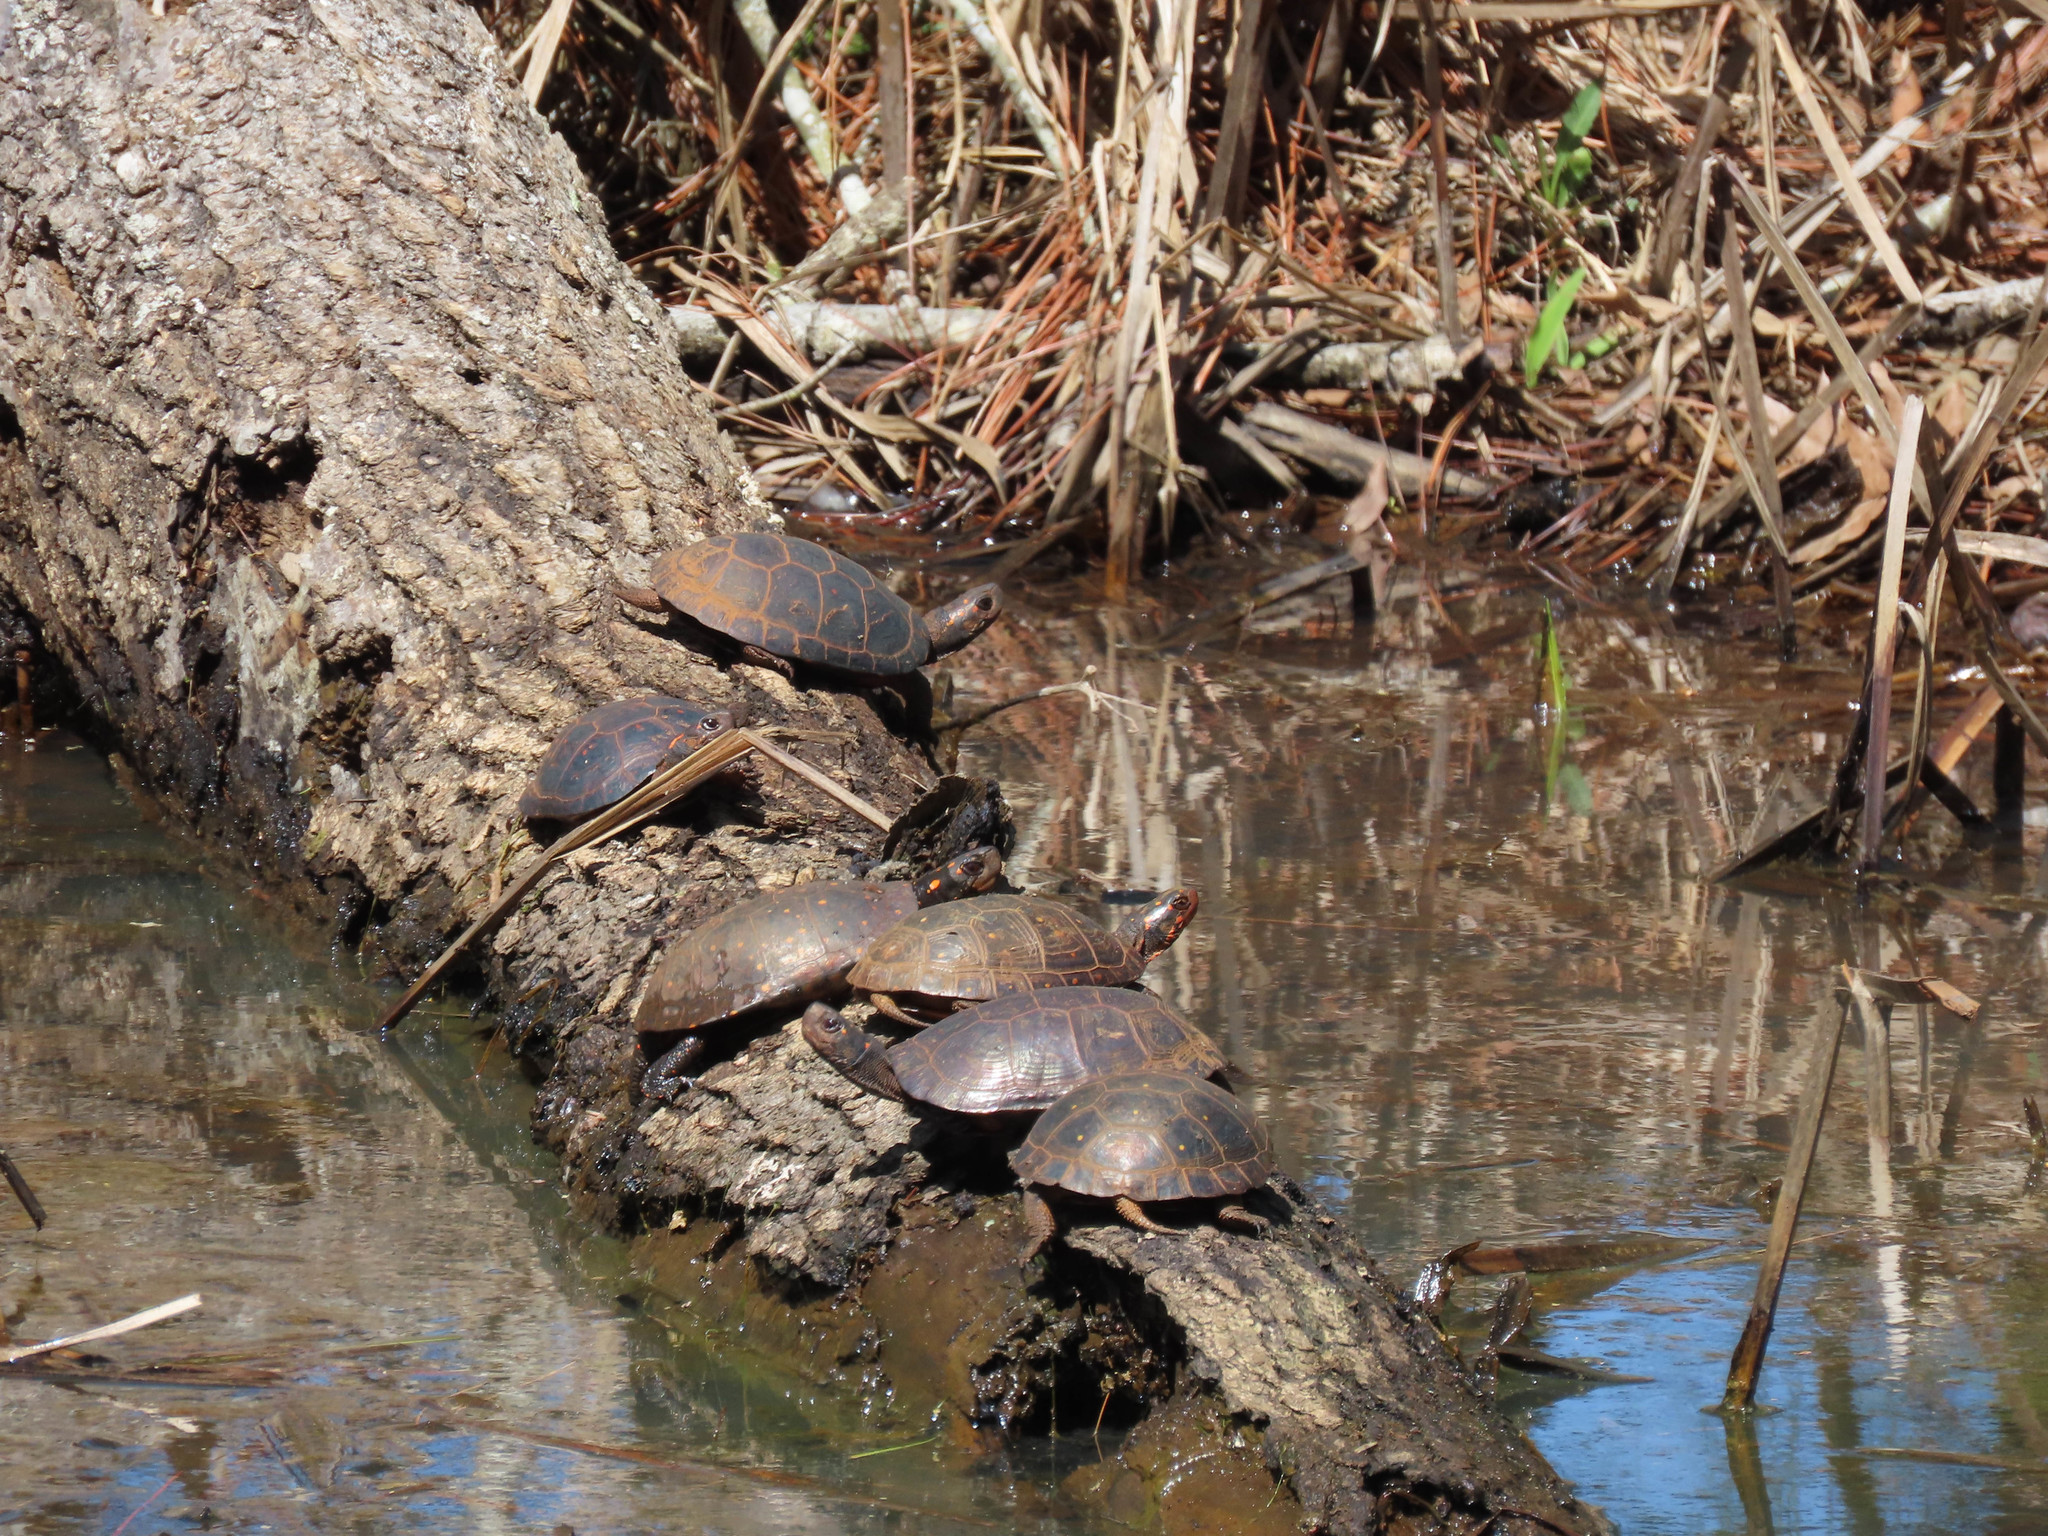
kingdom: Animalia
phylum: Chordata
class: Testudines
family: Emydidae
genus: Clemmys
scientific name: Clemmys guttata
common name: Spotted turtle
